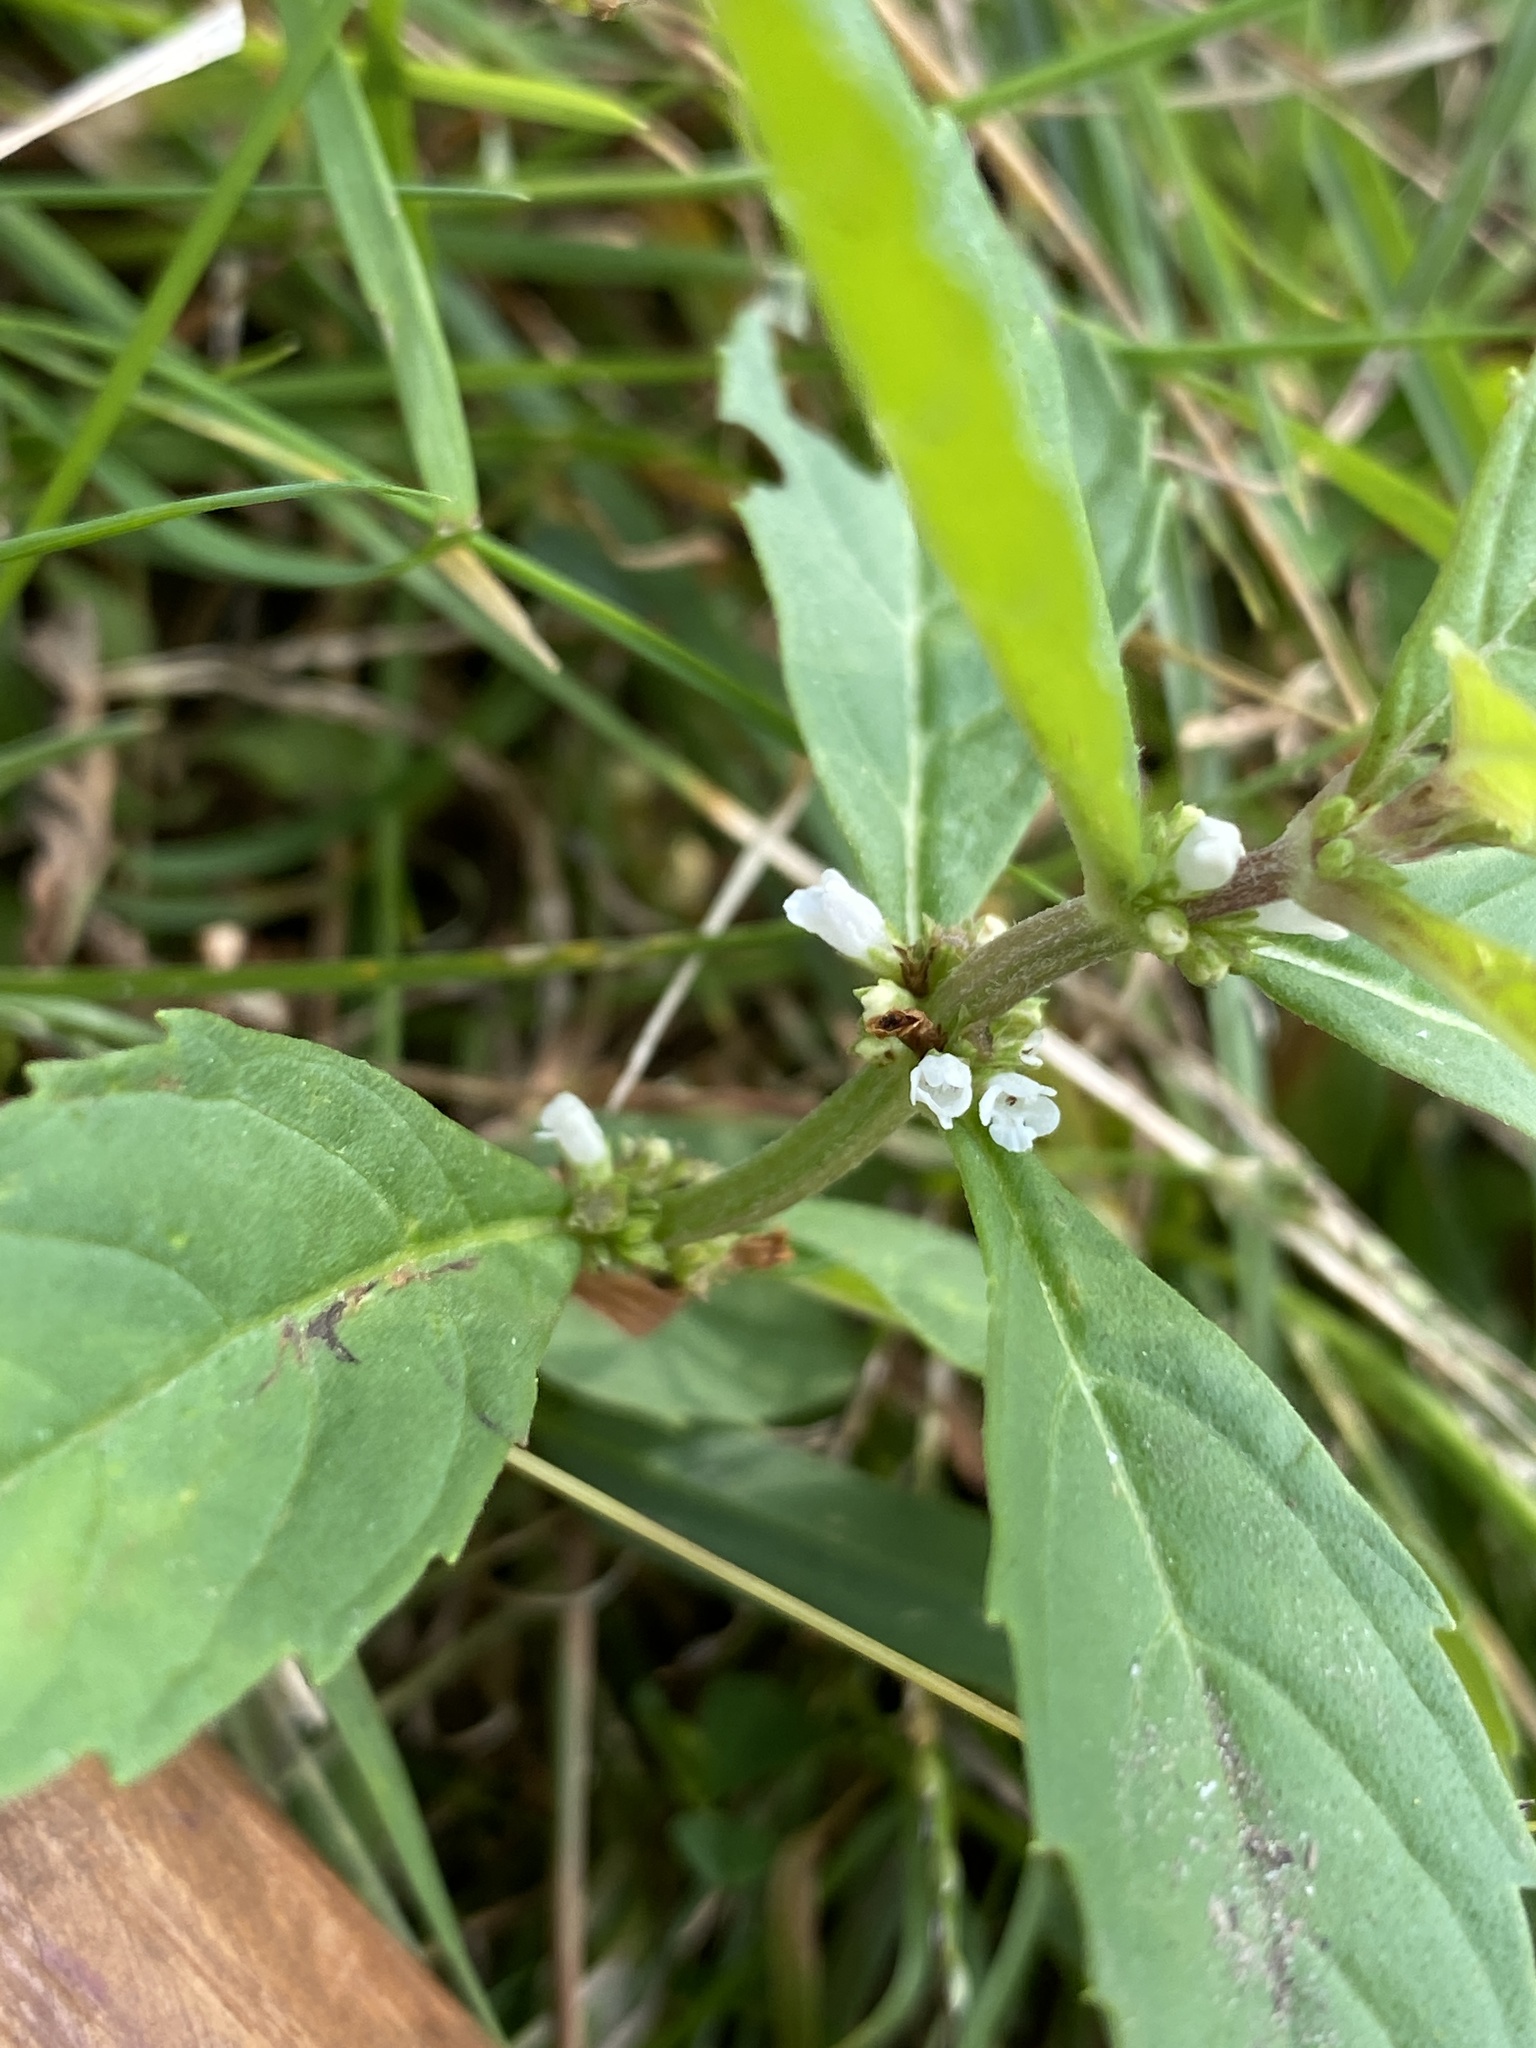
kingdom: Plantae
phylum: Tracheophyta
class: Magnoliopsida
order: Lamiales
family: Lamiaceae
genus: Lycopus
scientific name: Lycopus uniflorus
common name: Northern bugleweed
